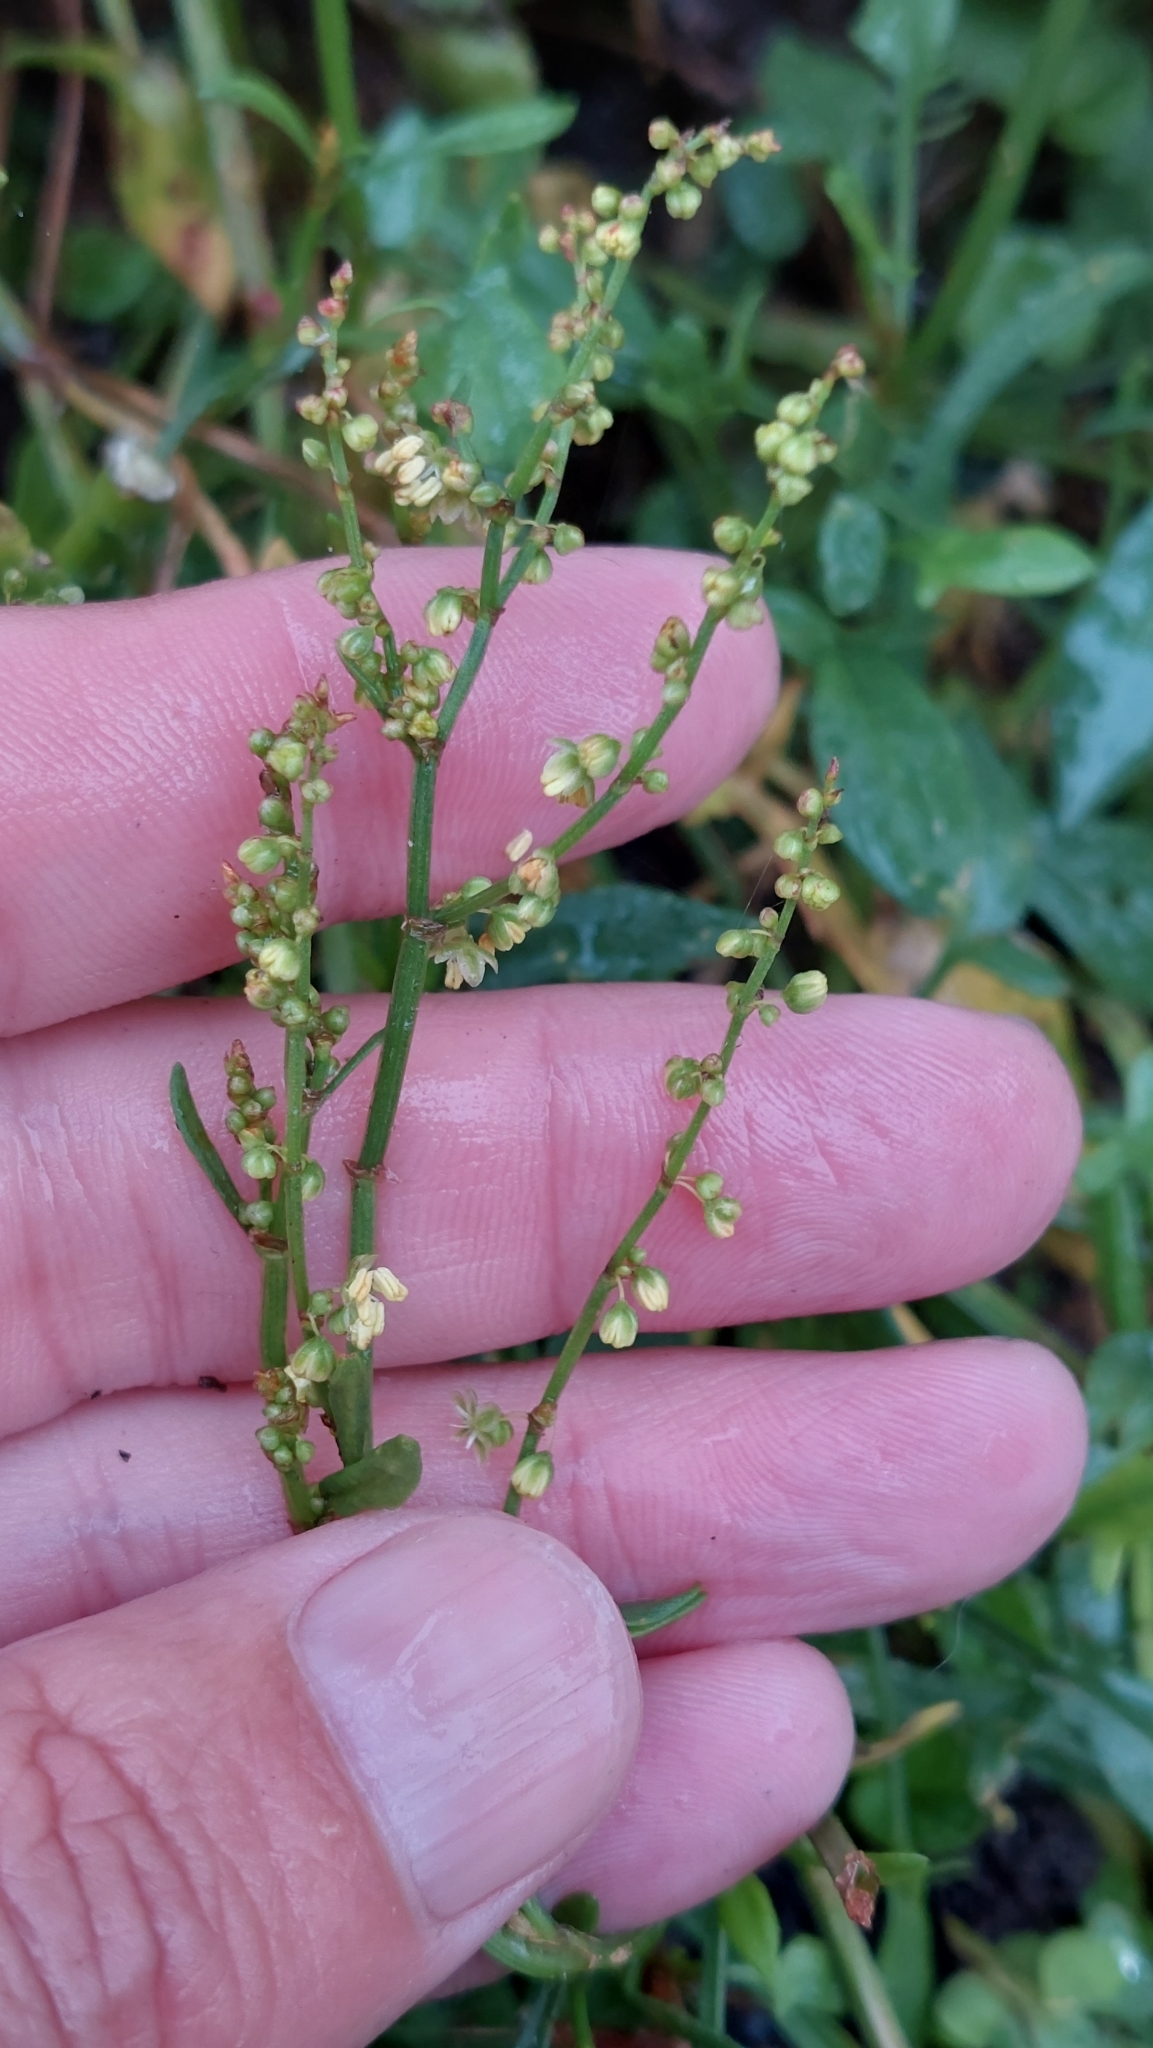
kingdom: Plantae
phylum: Tracheophyta
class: Magnoliopsida
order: Caryophyllales
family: Polygonaceae
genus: Rumex
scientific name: Rumex acetosella
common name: Common sheep sorrel
